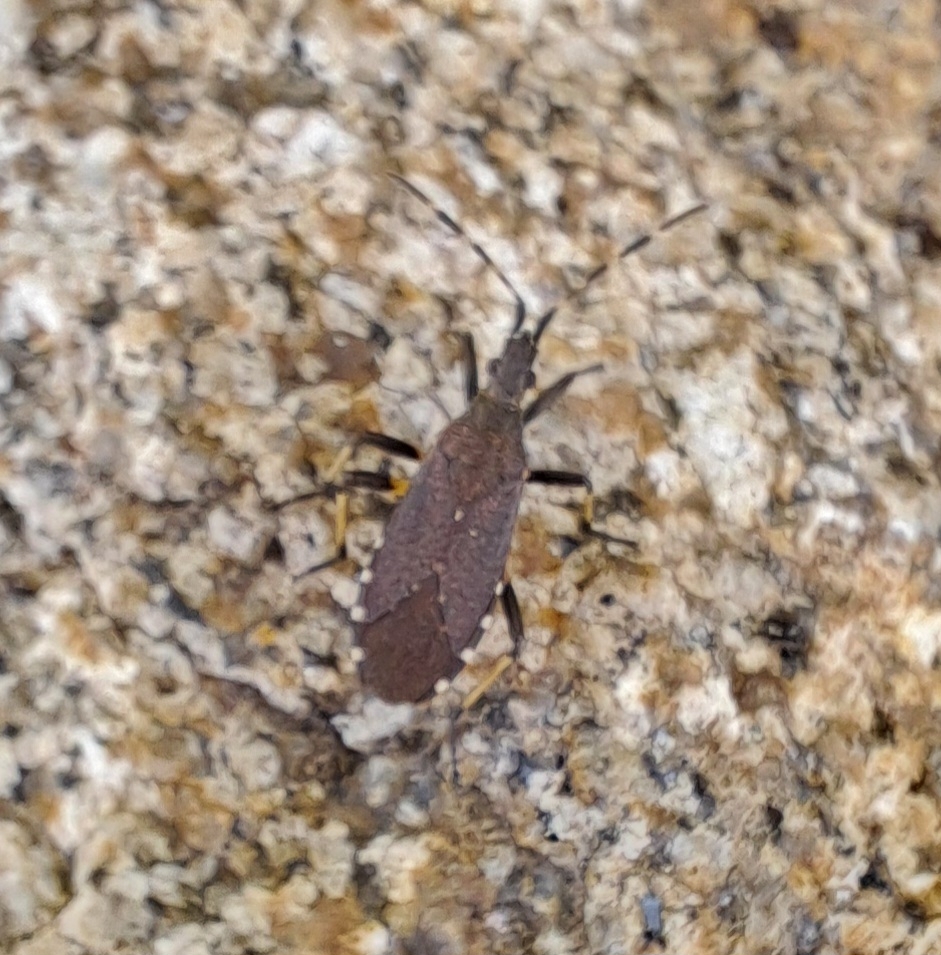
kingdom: Animalia
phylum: Arthropoda
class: Insecta
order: Hemiptera
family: Stenocephalidae
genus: Dicranocephalus
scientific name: Dicranocephalus agilis
